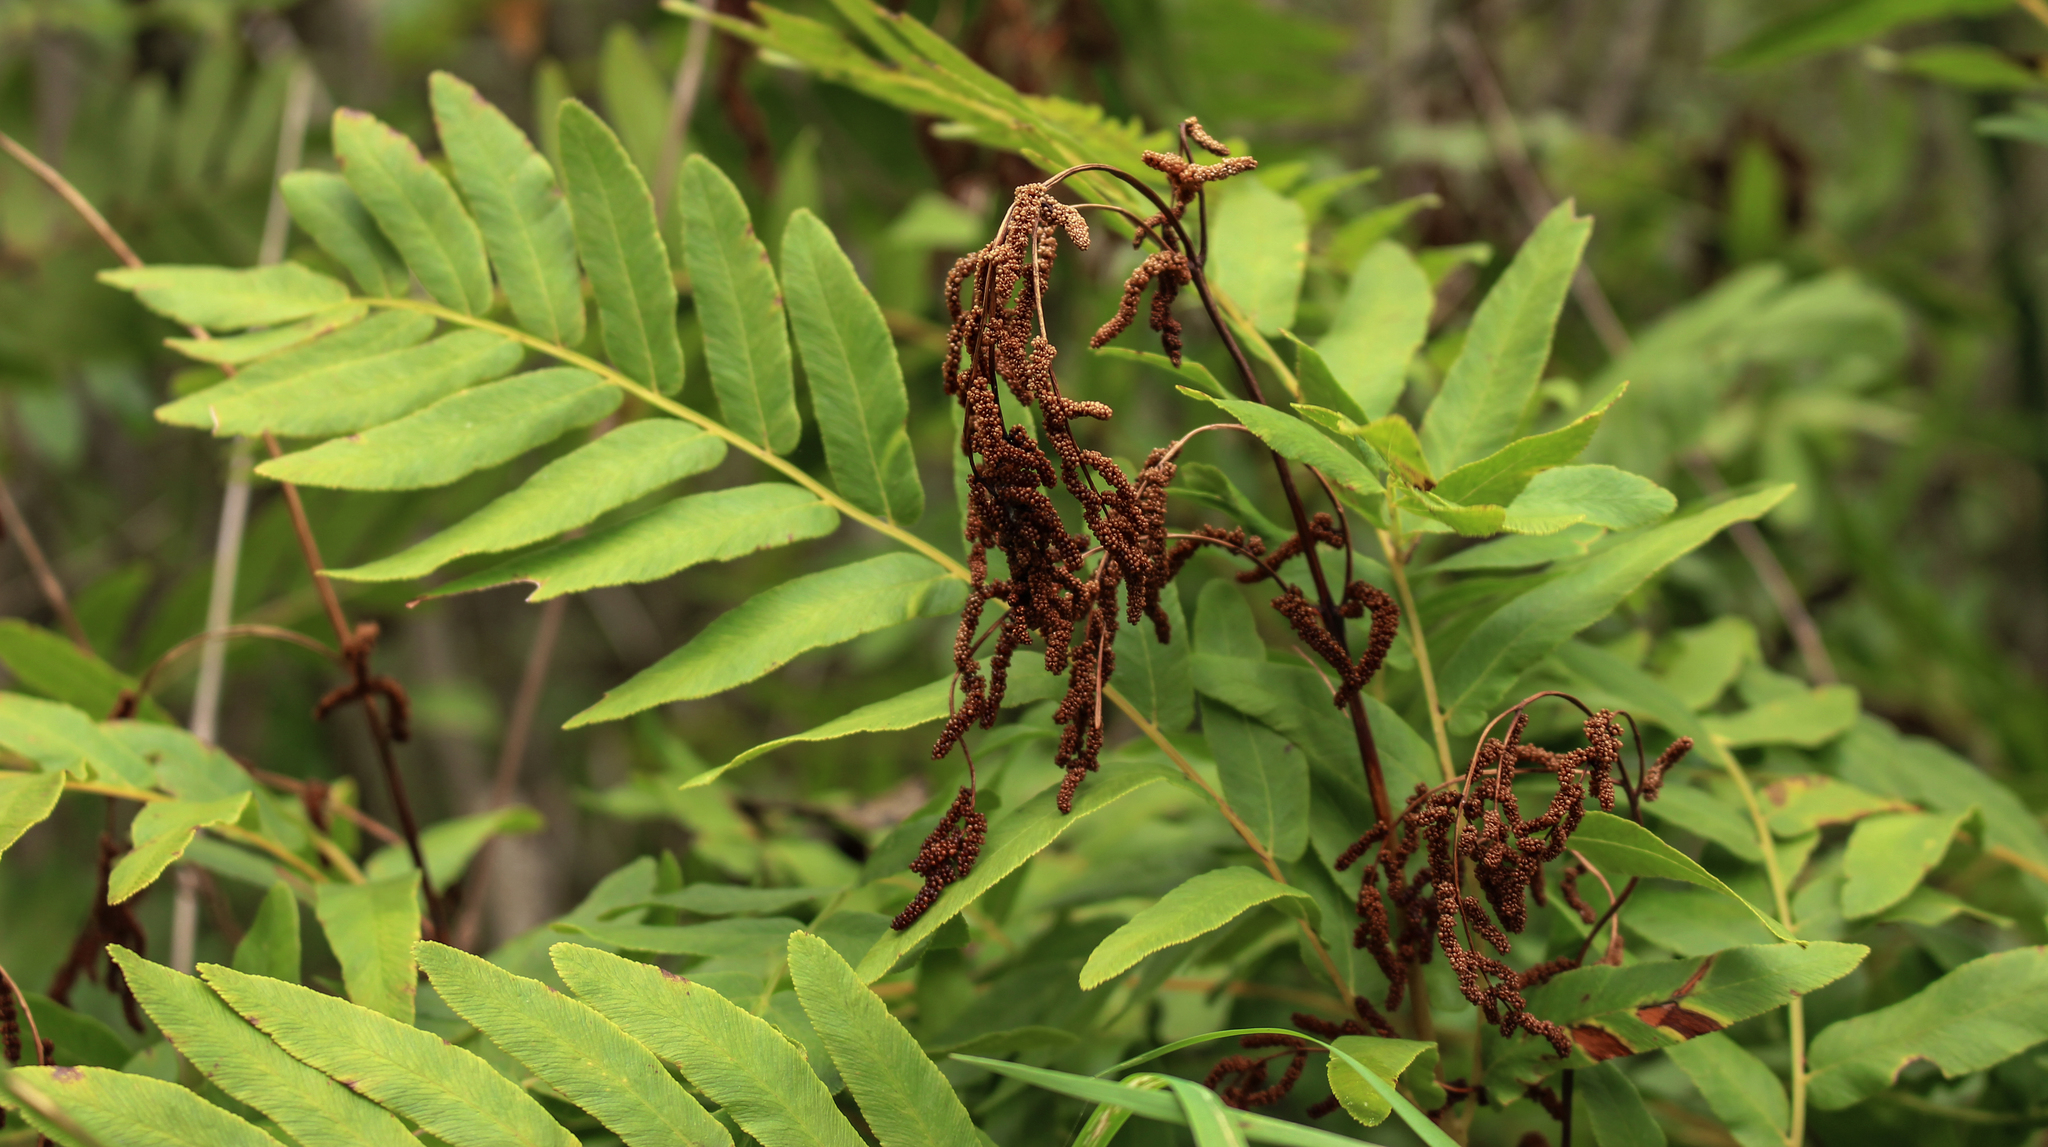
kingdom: Plantae
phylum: Tracheophyta
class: Polypodiopsida
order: Osmundales
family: Osmundaceae
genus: Osmunda
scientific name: Osmunda spectabilis
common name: American royal fern
